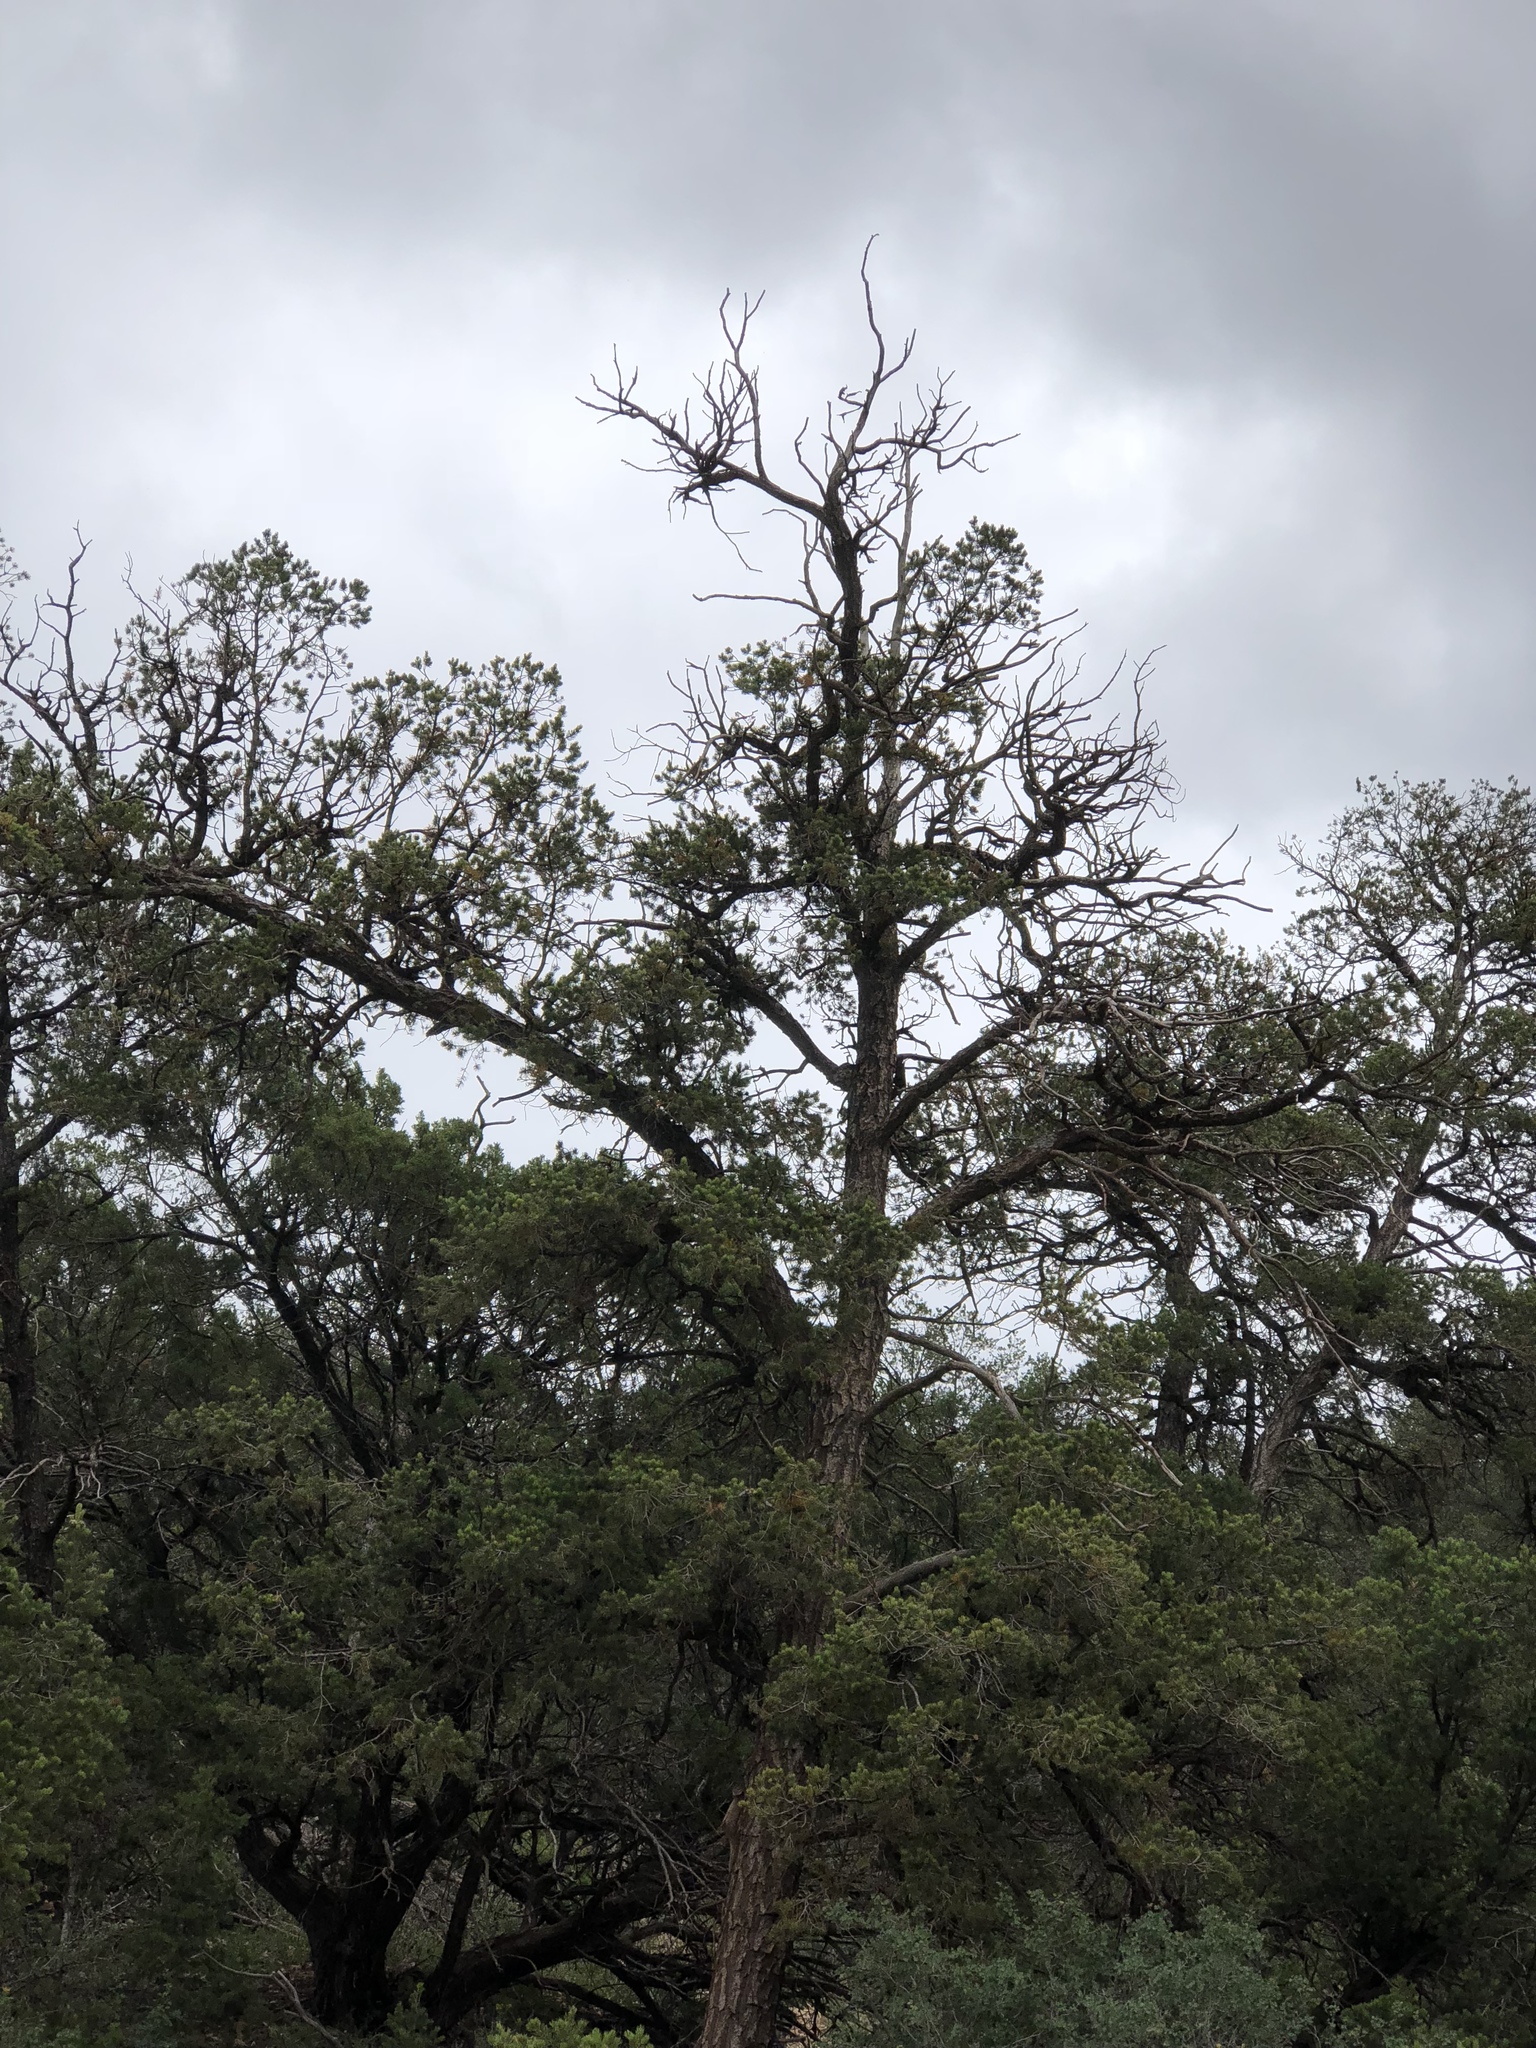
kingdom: Plantae
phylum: Tracheophyta
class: Pinopsida
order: Pinales
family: Pinaceae
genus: Pinus
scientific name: Pinus edulis
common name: Colorado pinyon
